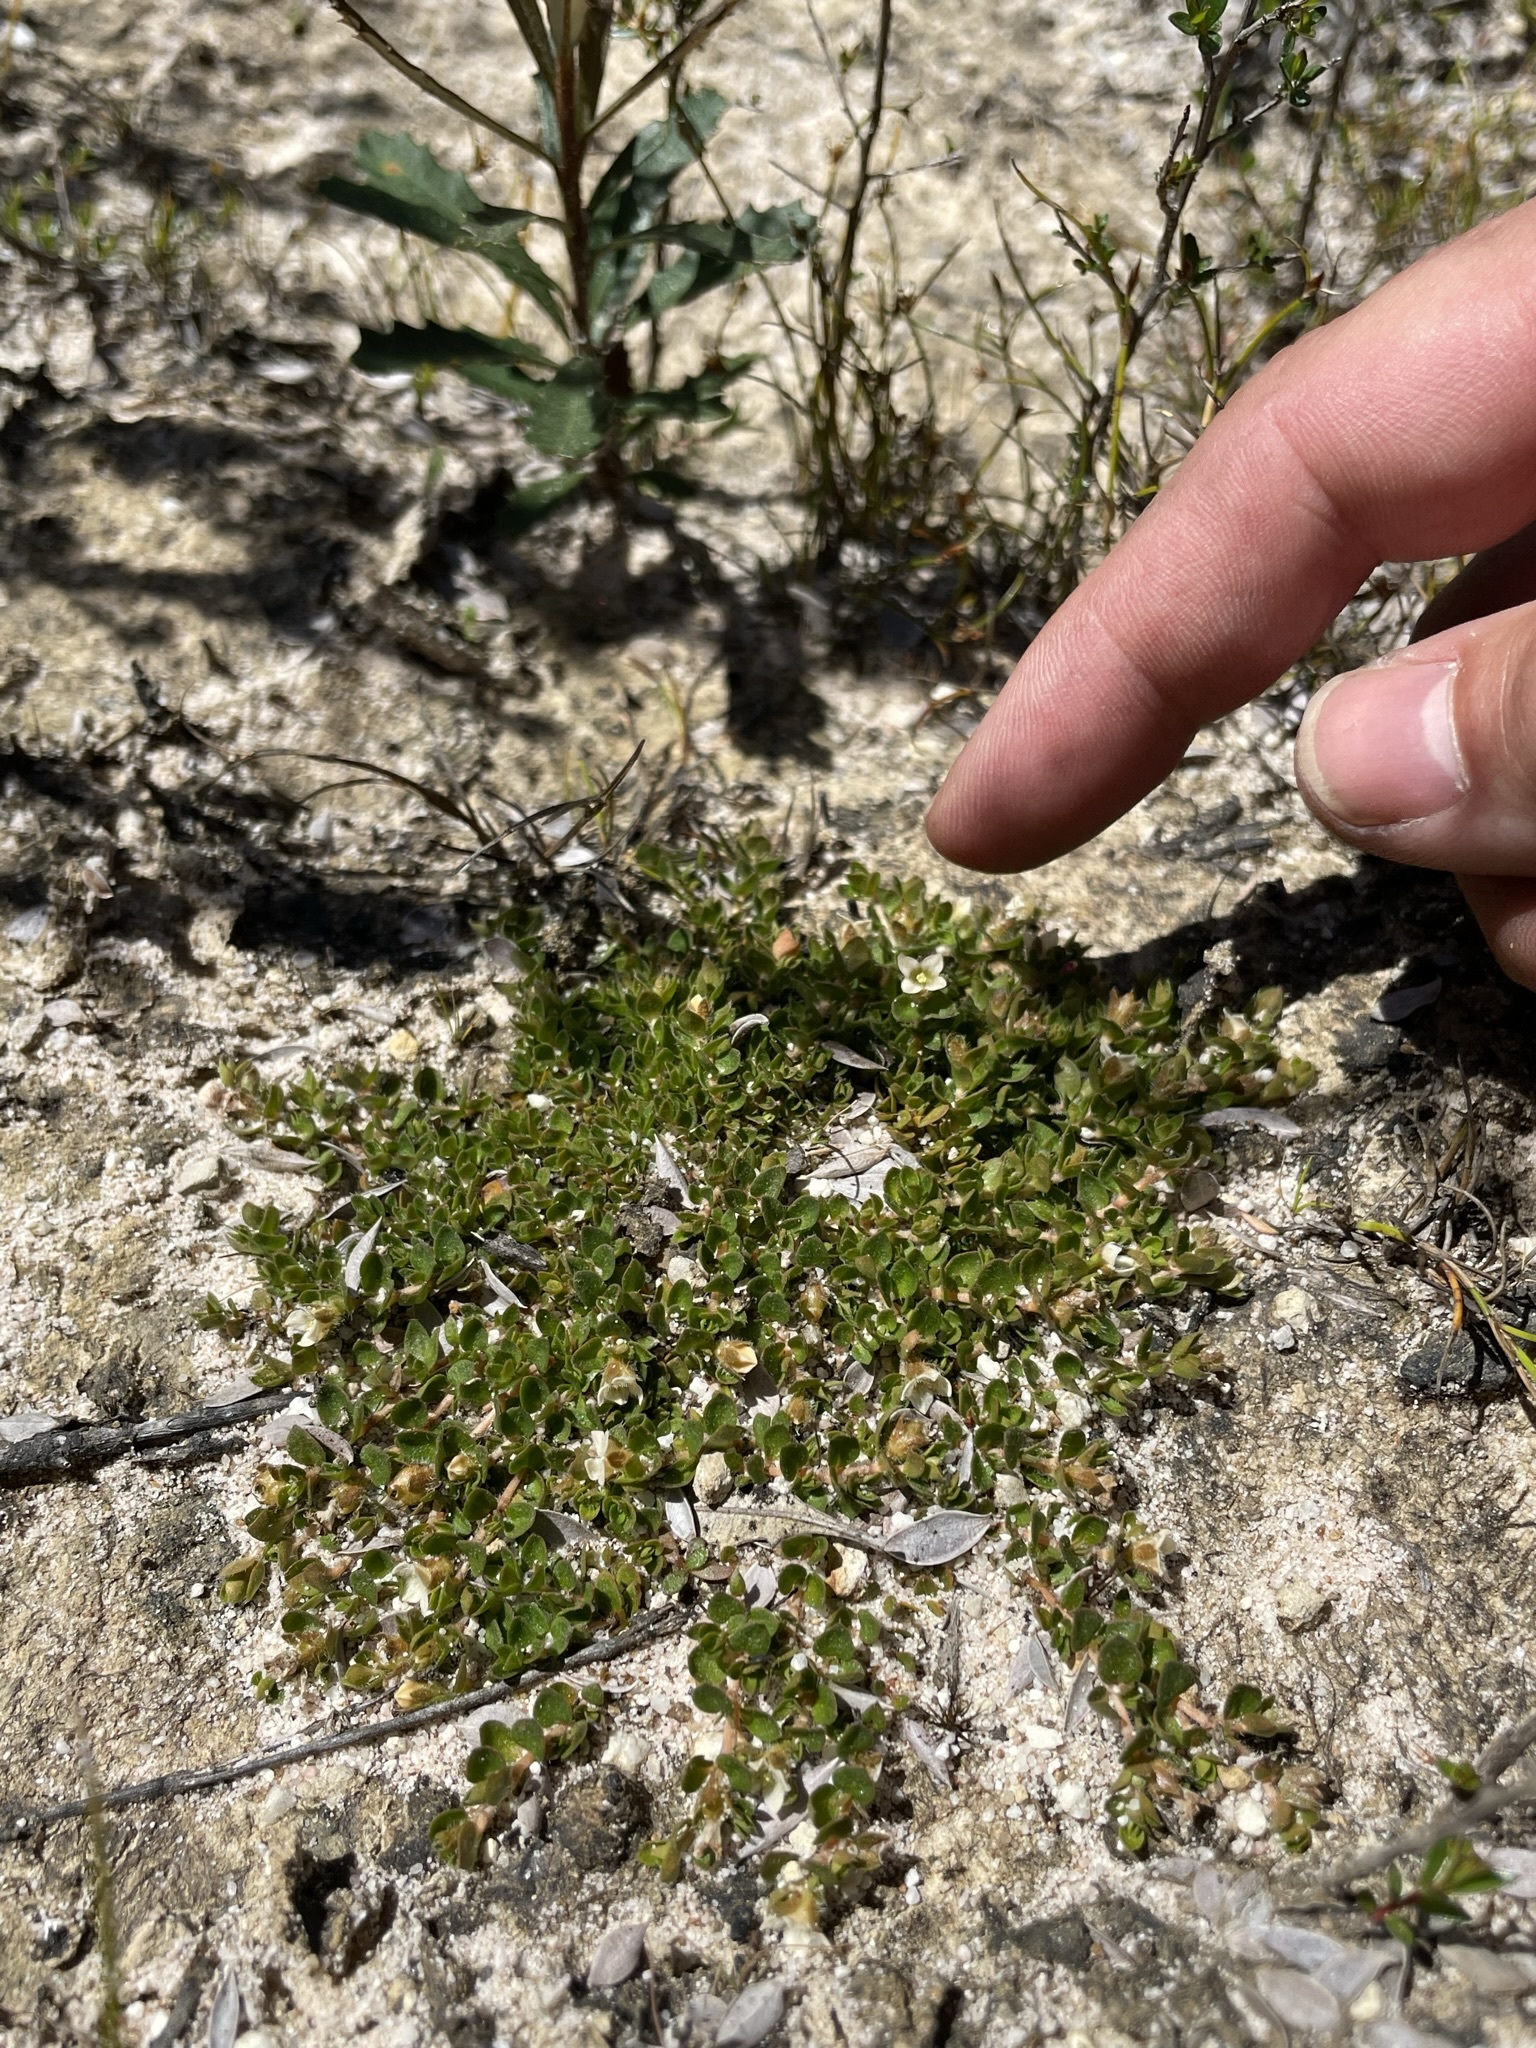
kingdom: Plantae
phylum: Tracheophyta
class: Magnoliopsida
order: Gentianales
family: Loganiaceae
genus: Mitrasacme
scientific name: Mitrasacme pilosa
